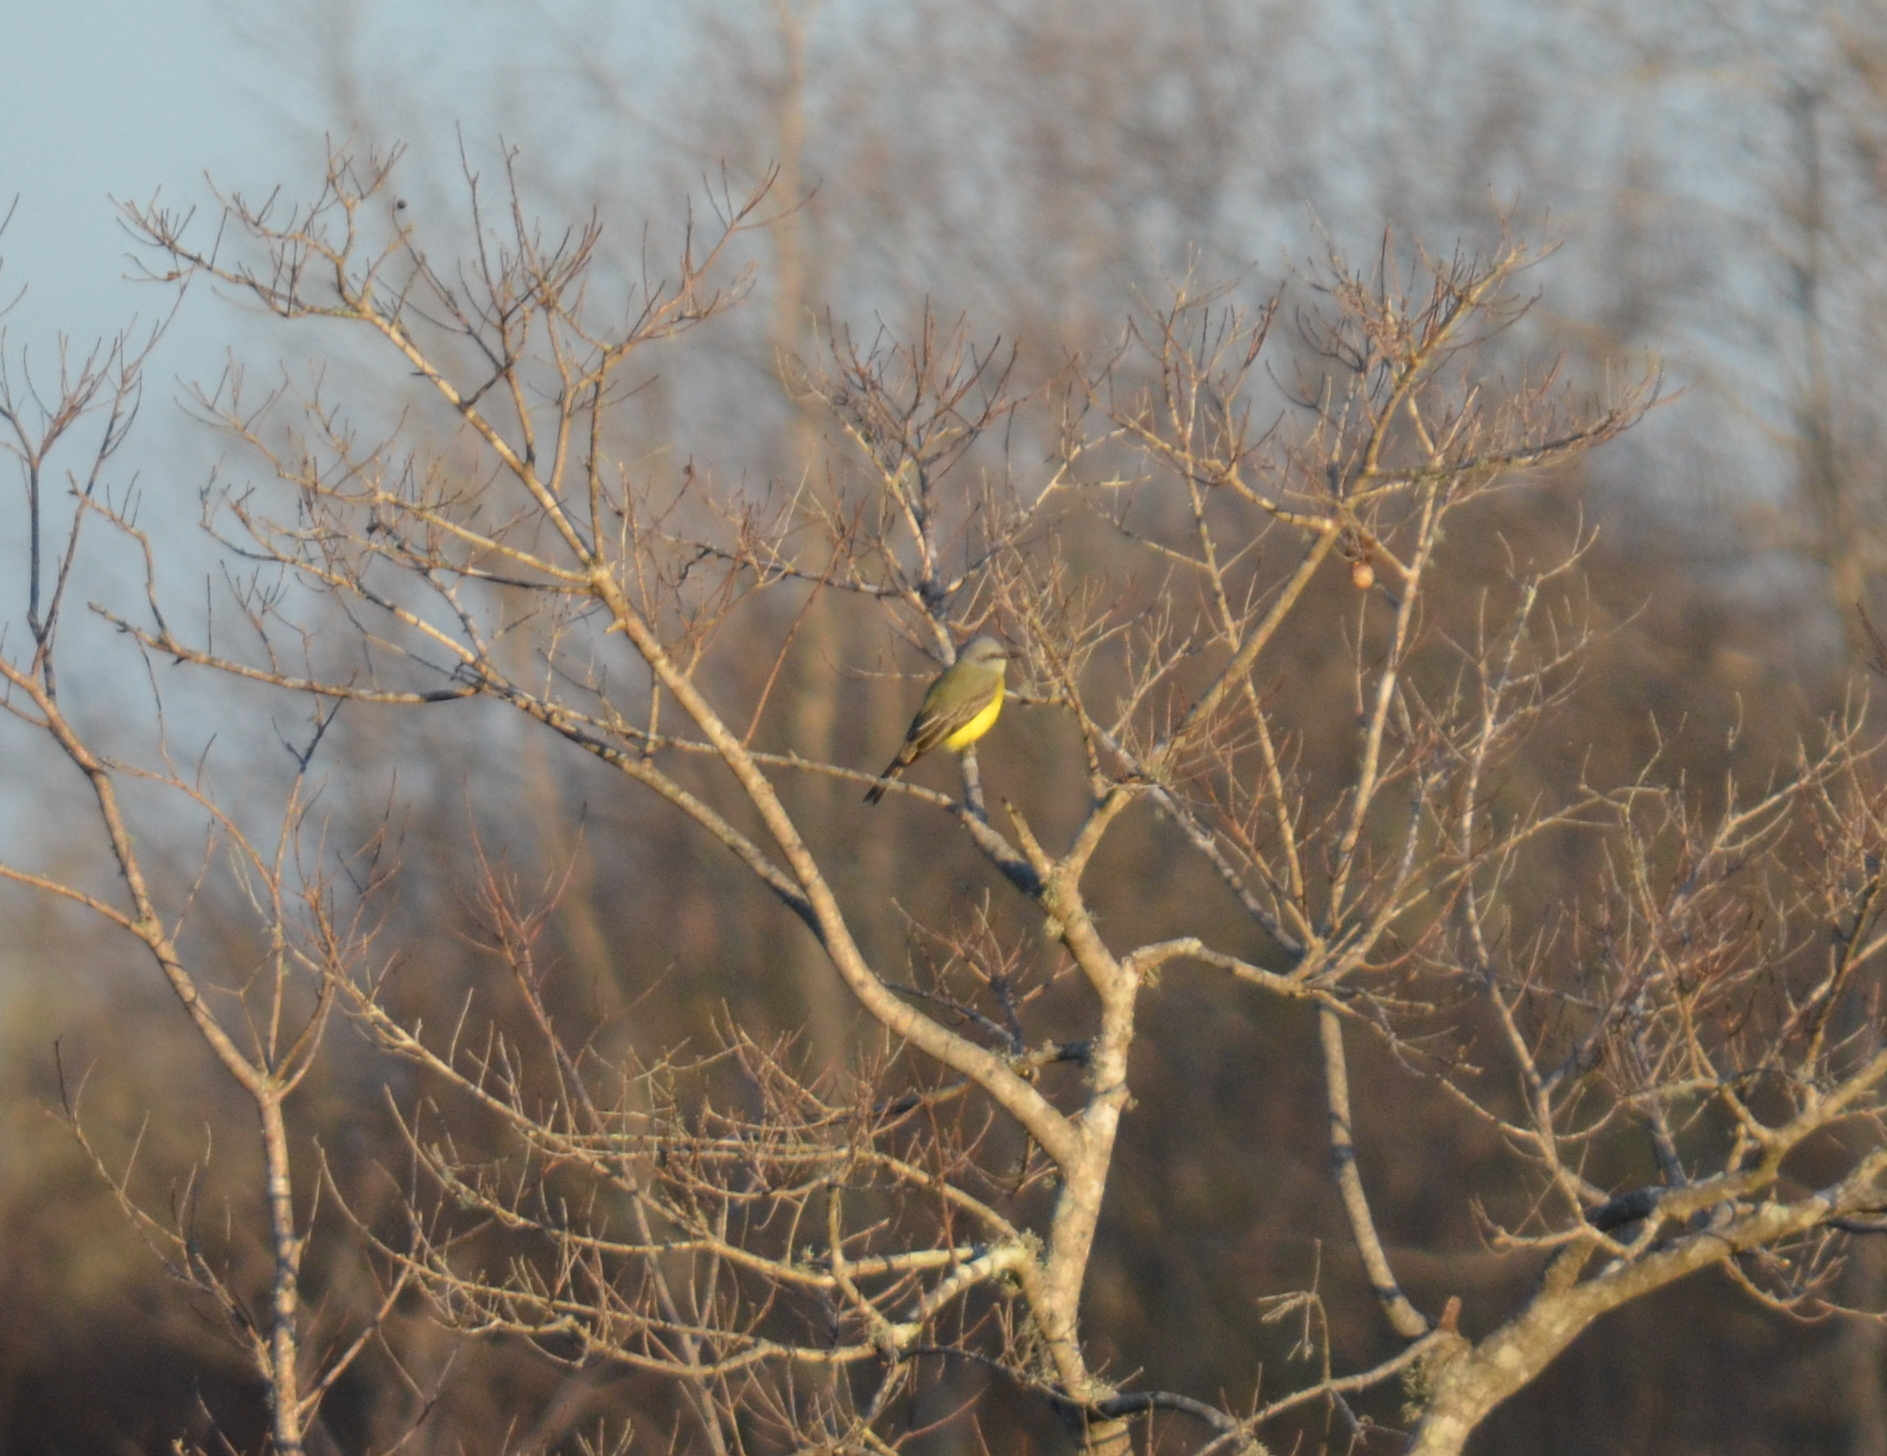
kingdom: Animalia
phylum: Chordata
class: Aves
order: Passeriformes
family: Tyrannidae
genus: Tyrannus
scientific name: Tyrannus couchii
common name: Couch's kingbird
